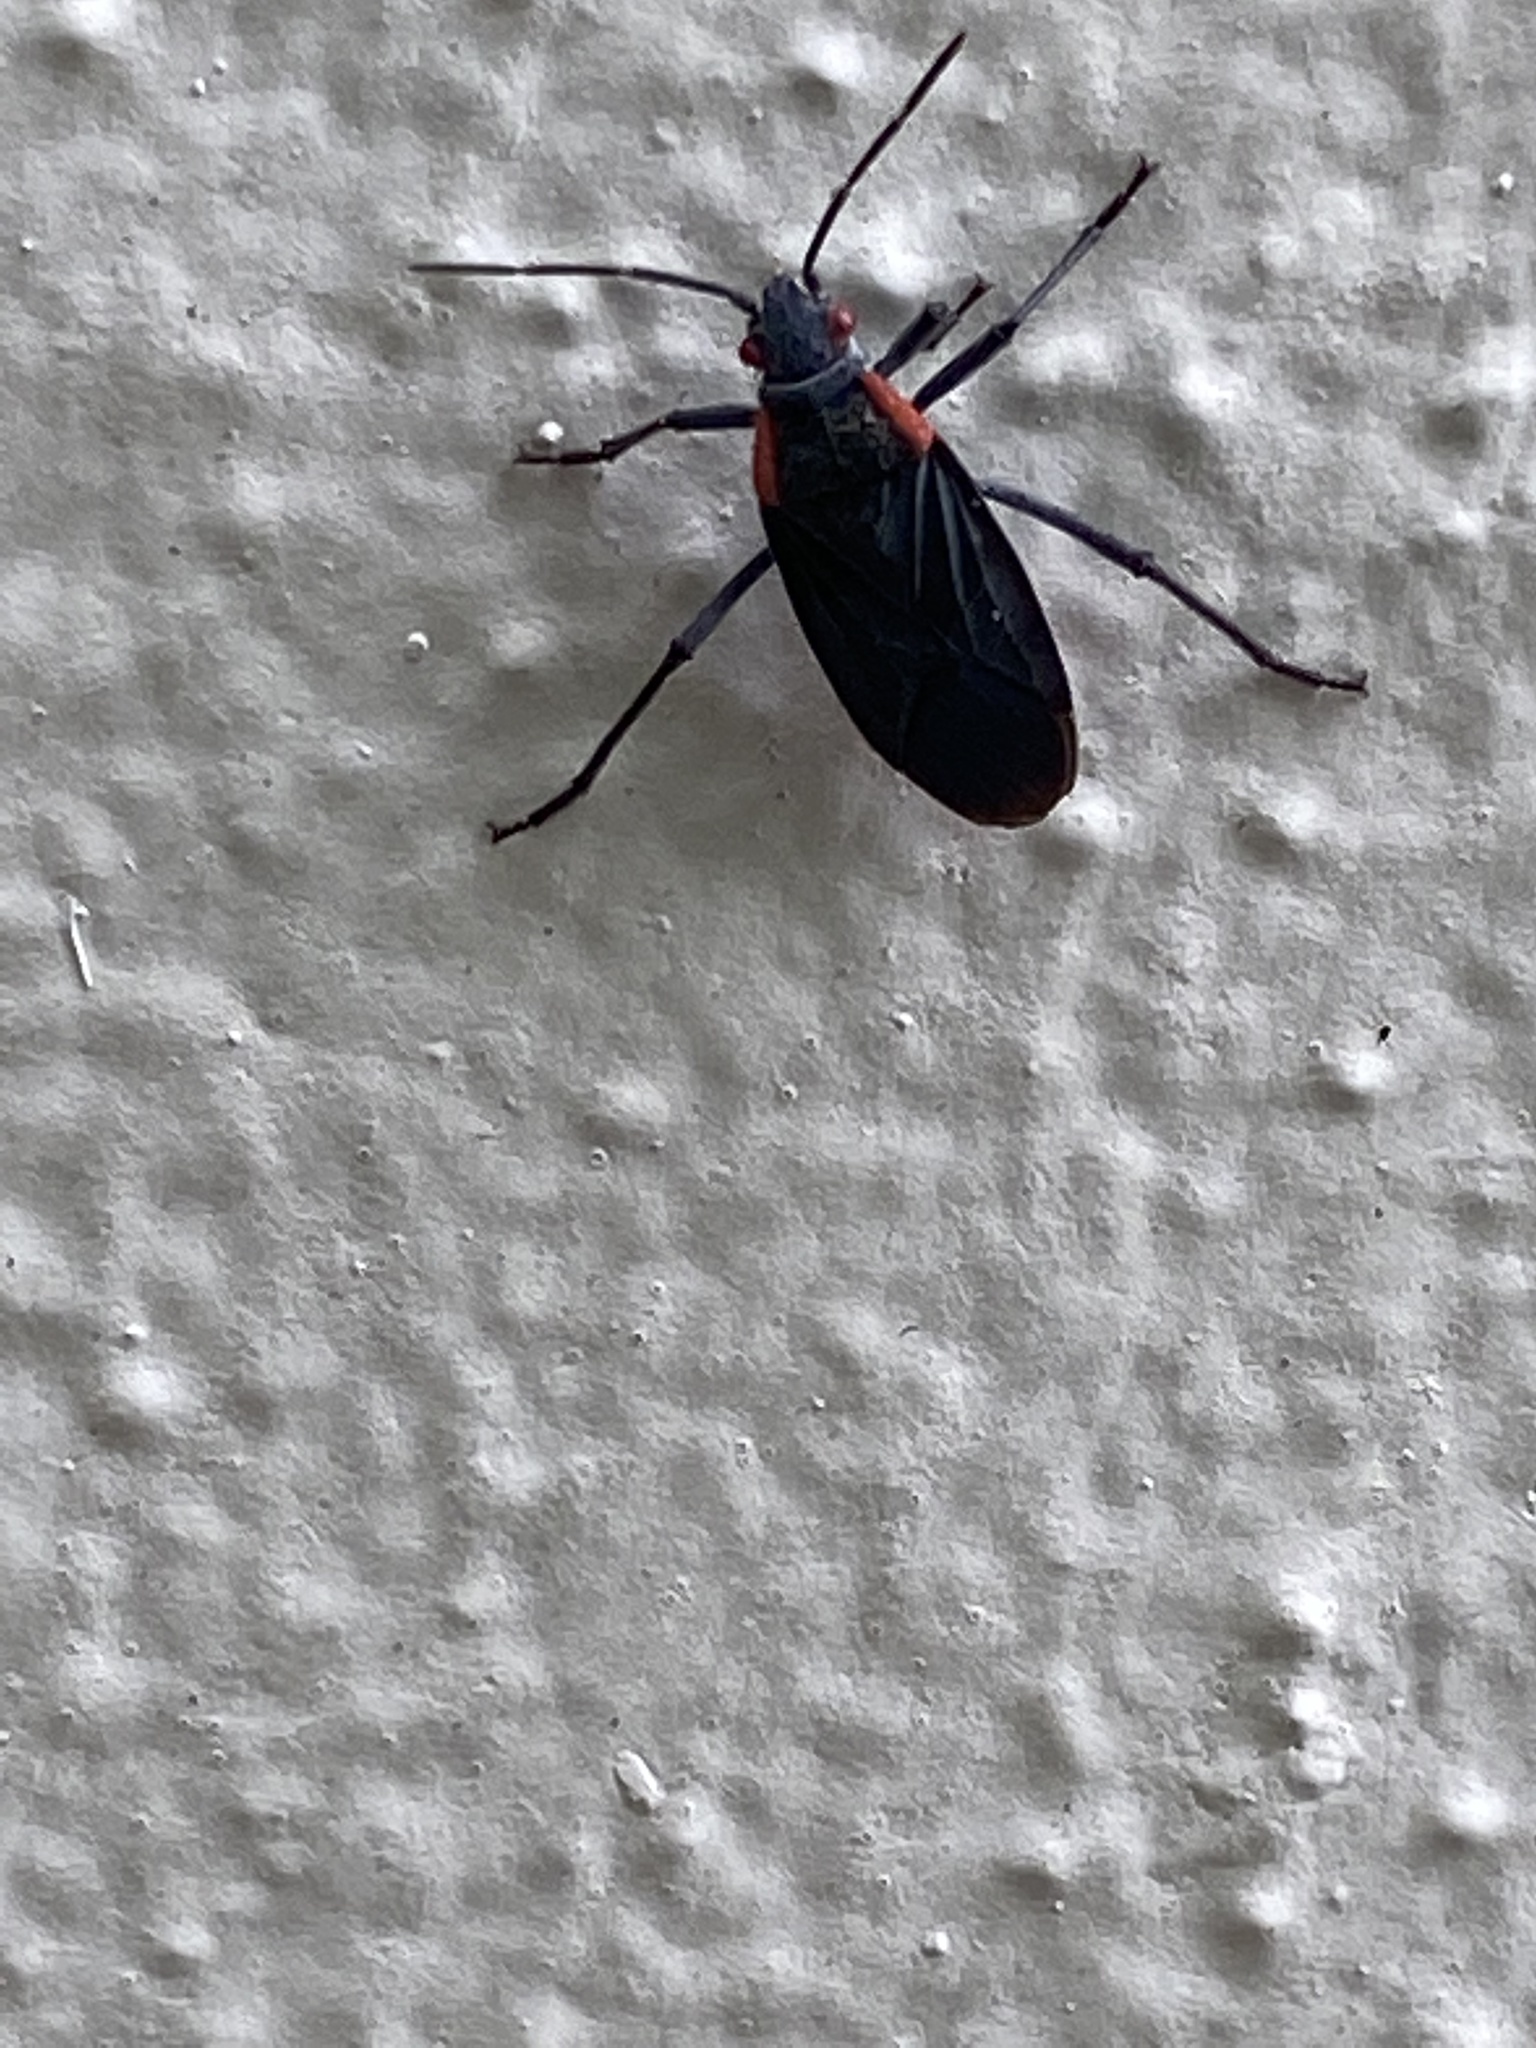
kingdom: Animalia
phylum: Arthropoda
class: Insecta
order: Hemiptera
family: Rhopalidae
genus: Jadera
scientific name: Jadera haematoloma
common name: Red-shouldered bug
